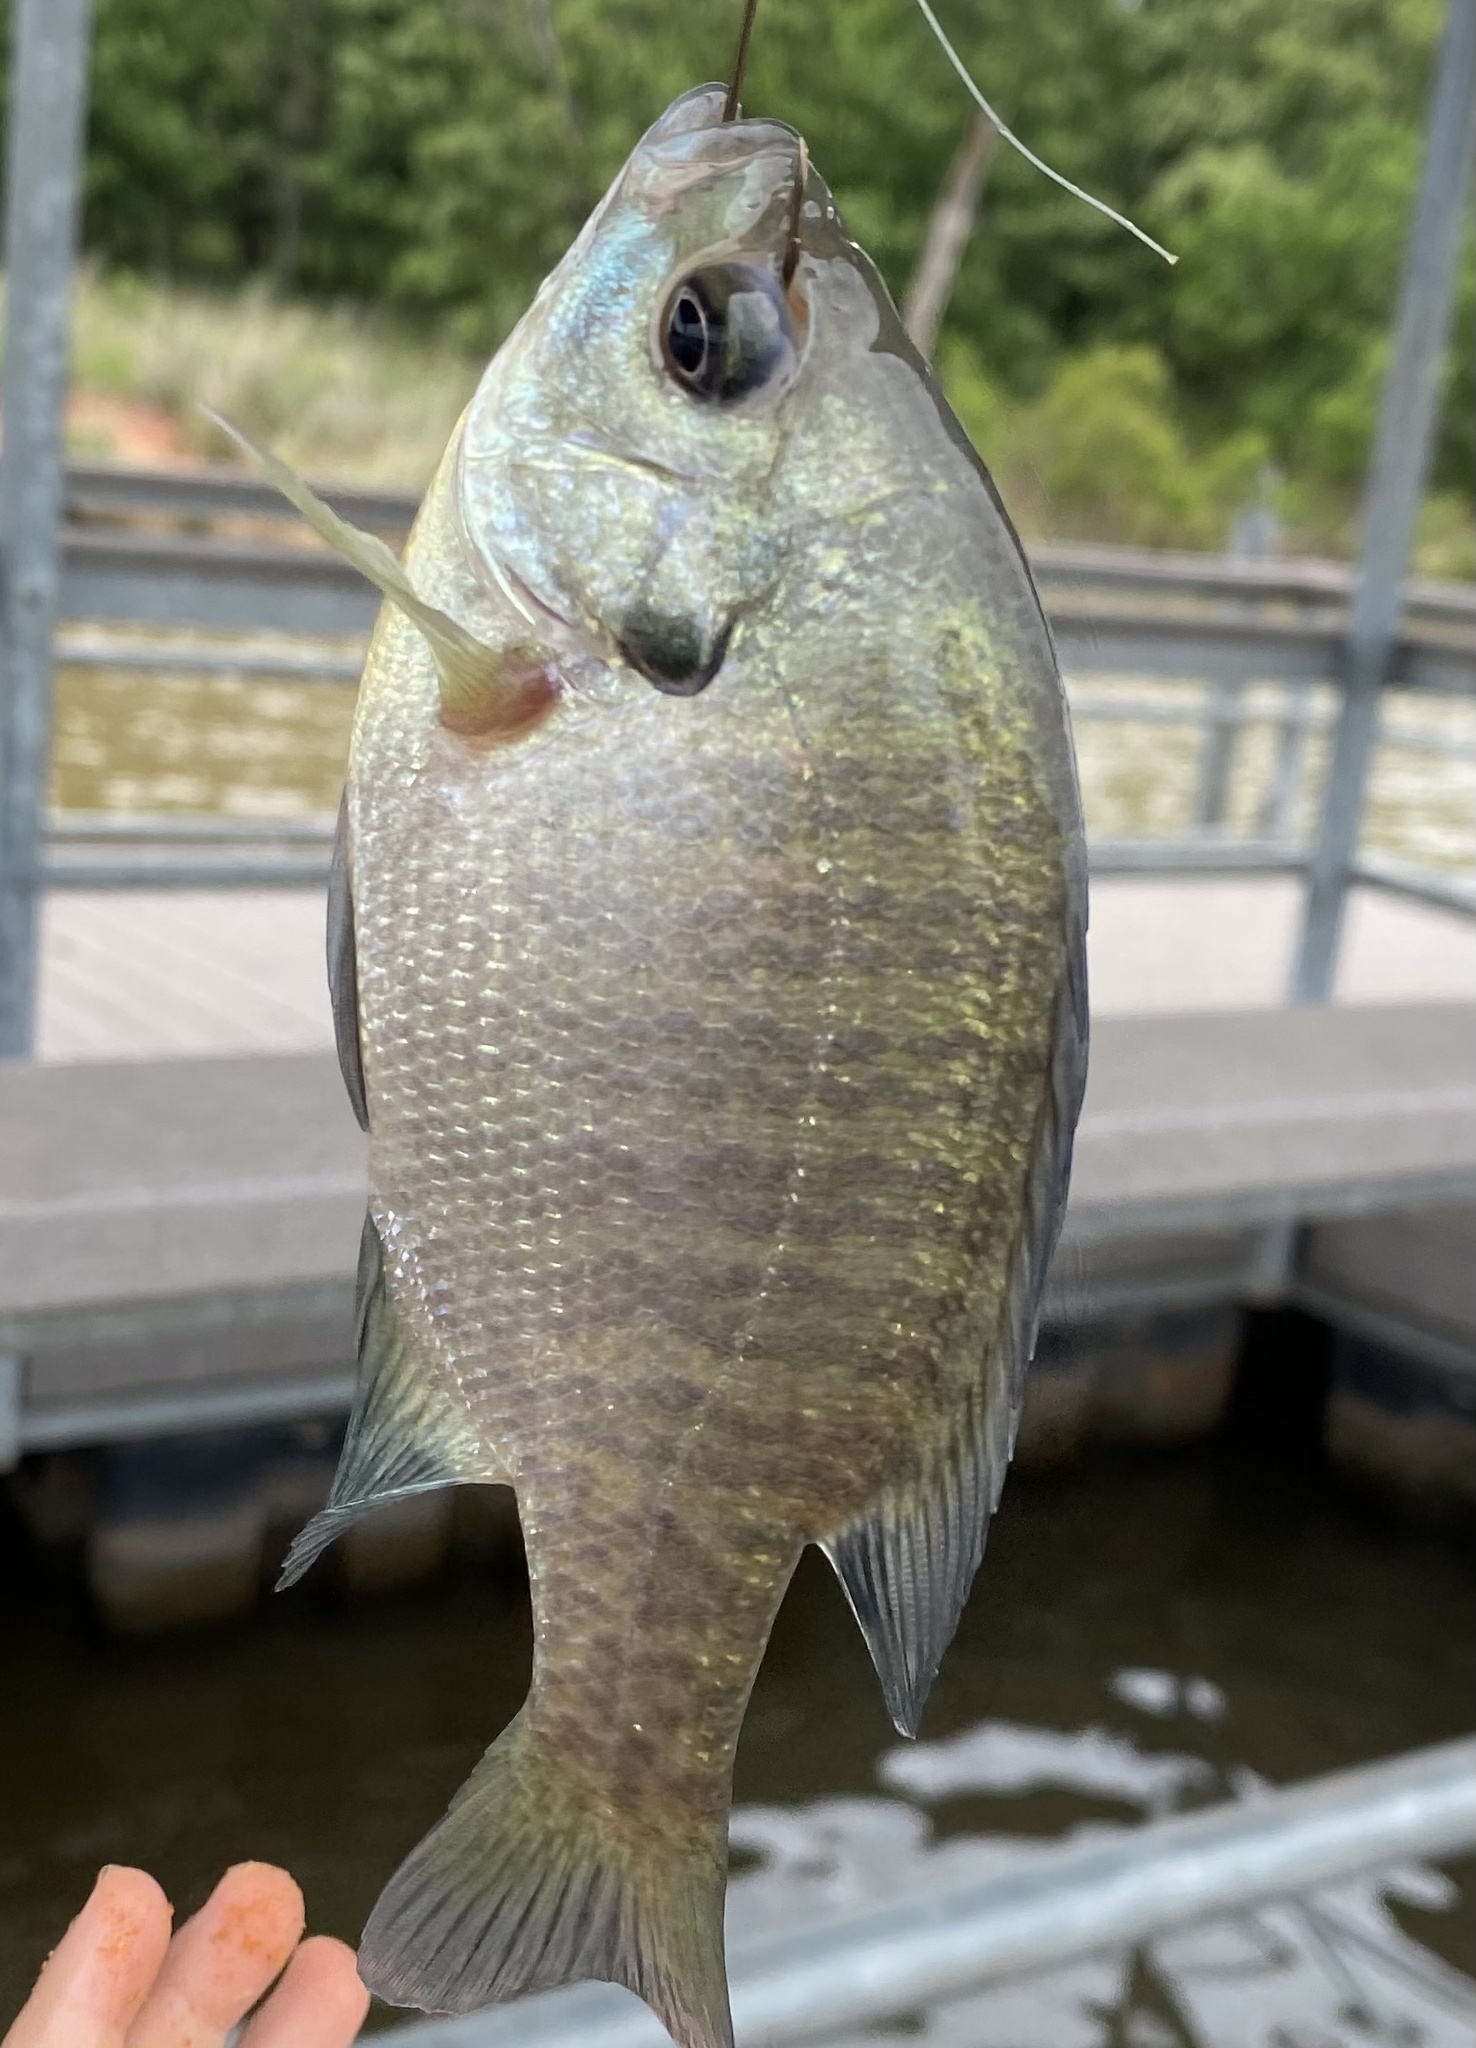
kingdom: Animalia
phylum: Chordata
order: Perciformes
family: Centrarchidae
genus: Lepomis
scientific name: Lepomis macrochirus
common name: Bluegill
